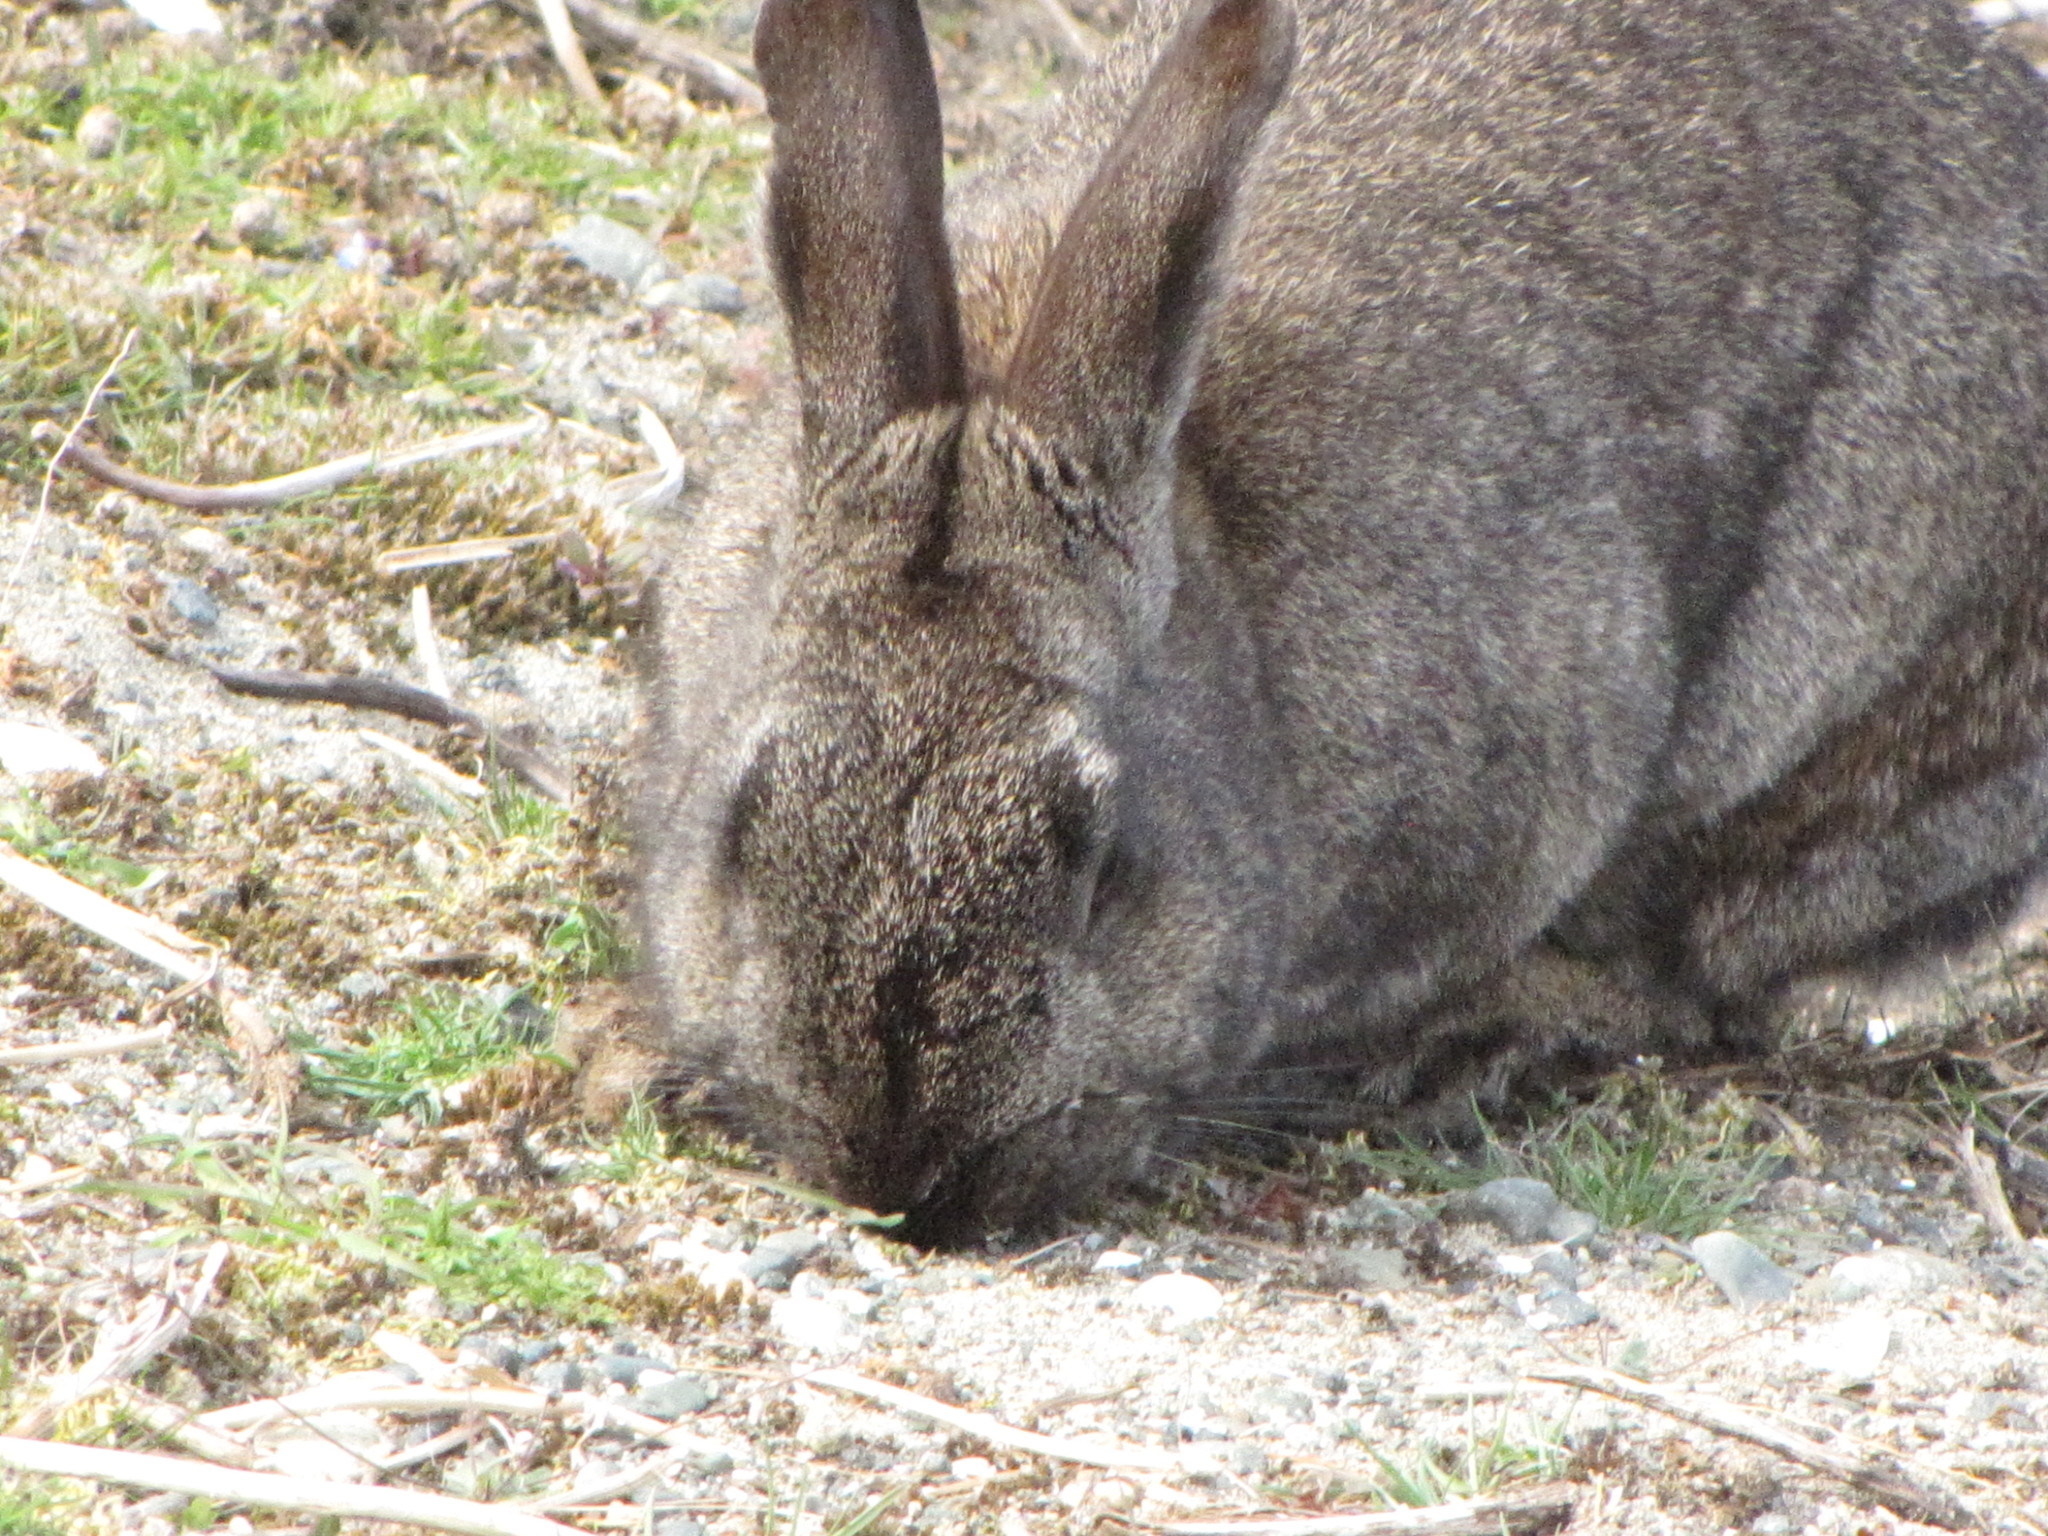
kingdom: Animalia
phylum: Chordata
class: Mammalia
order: Lagomorpha
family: Leporidae
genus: Oryctolagus
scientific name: Oryctolagus cuniculus
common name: European rabbit
